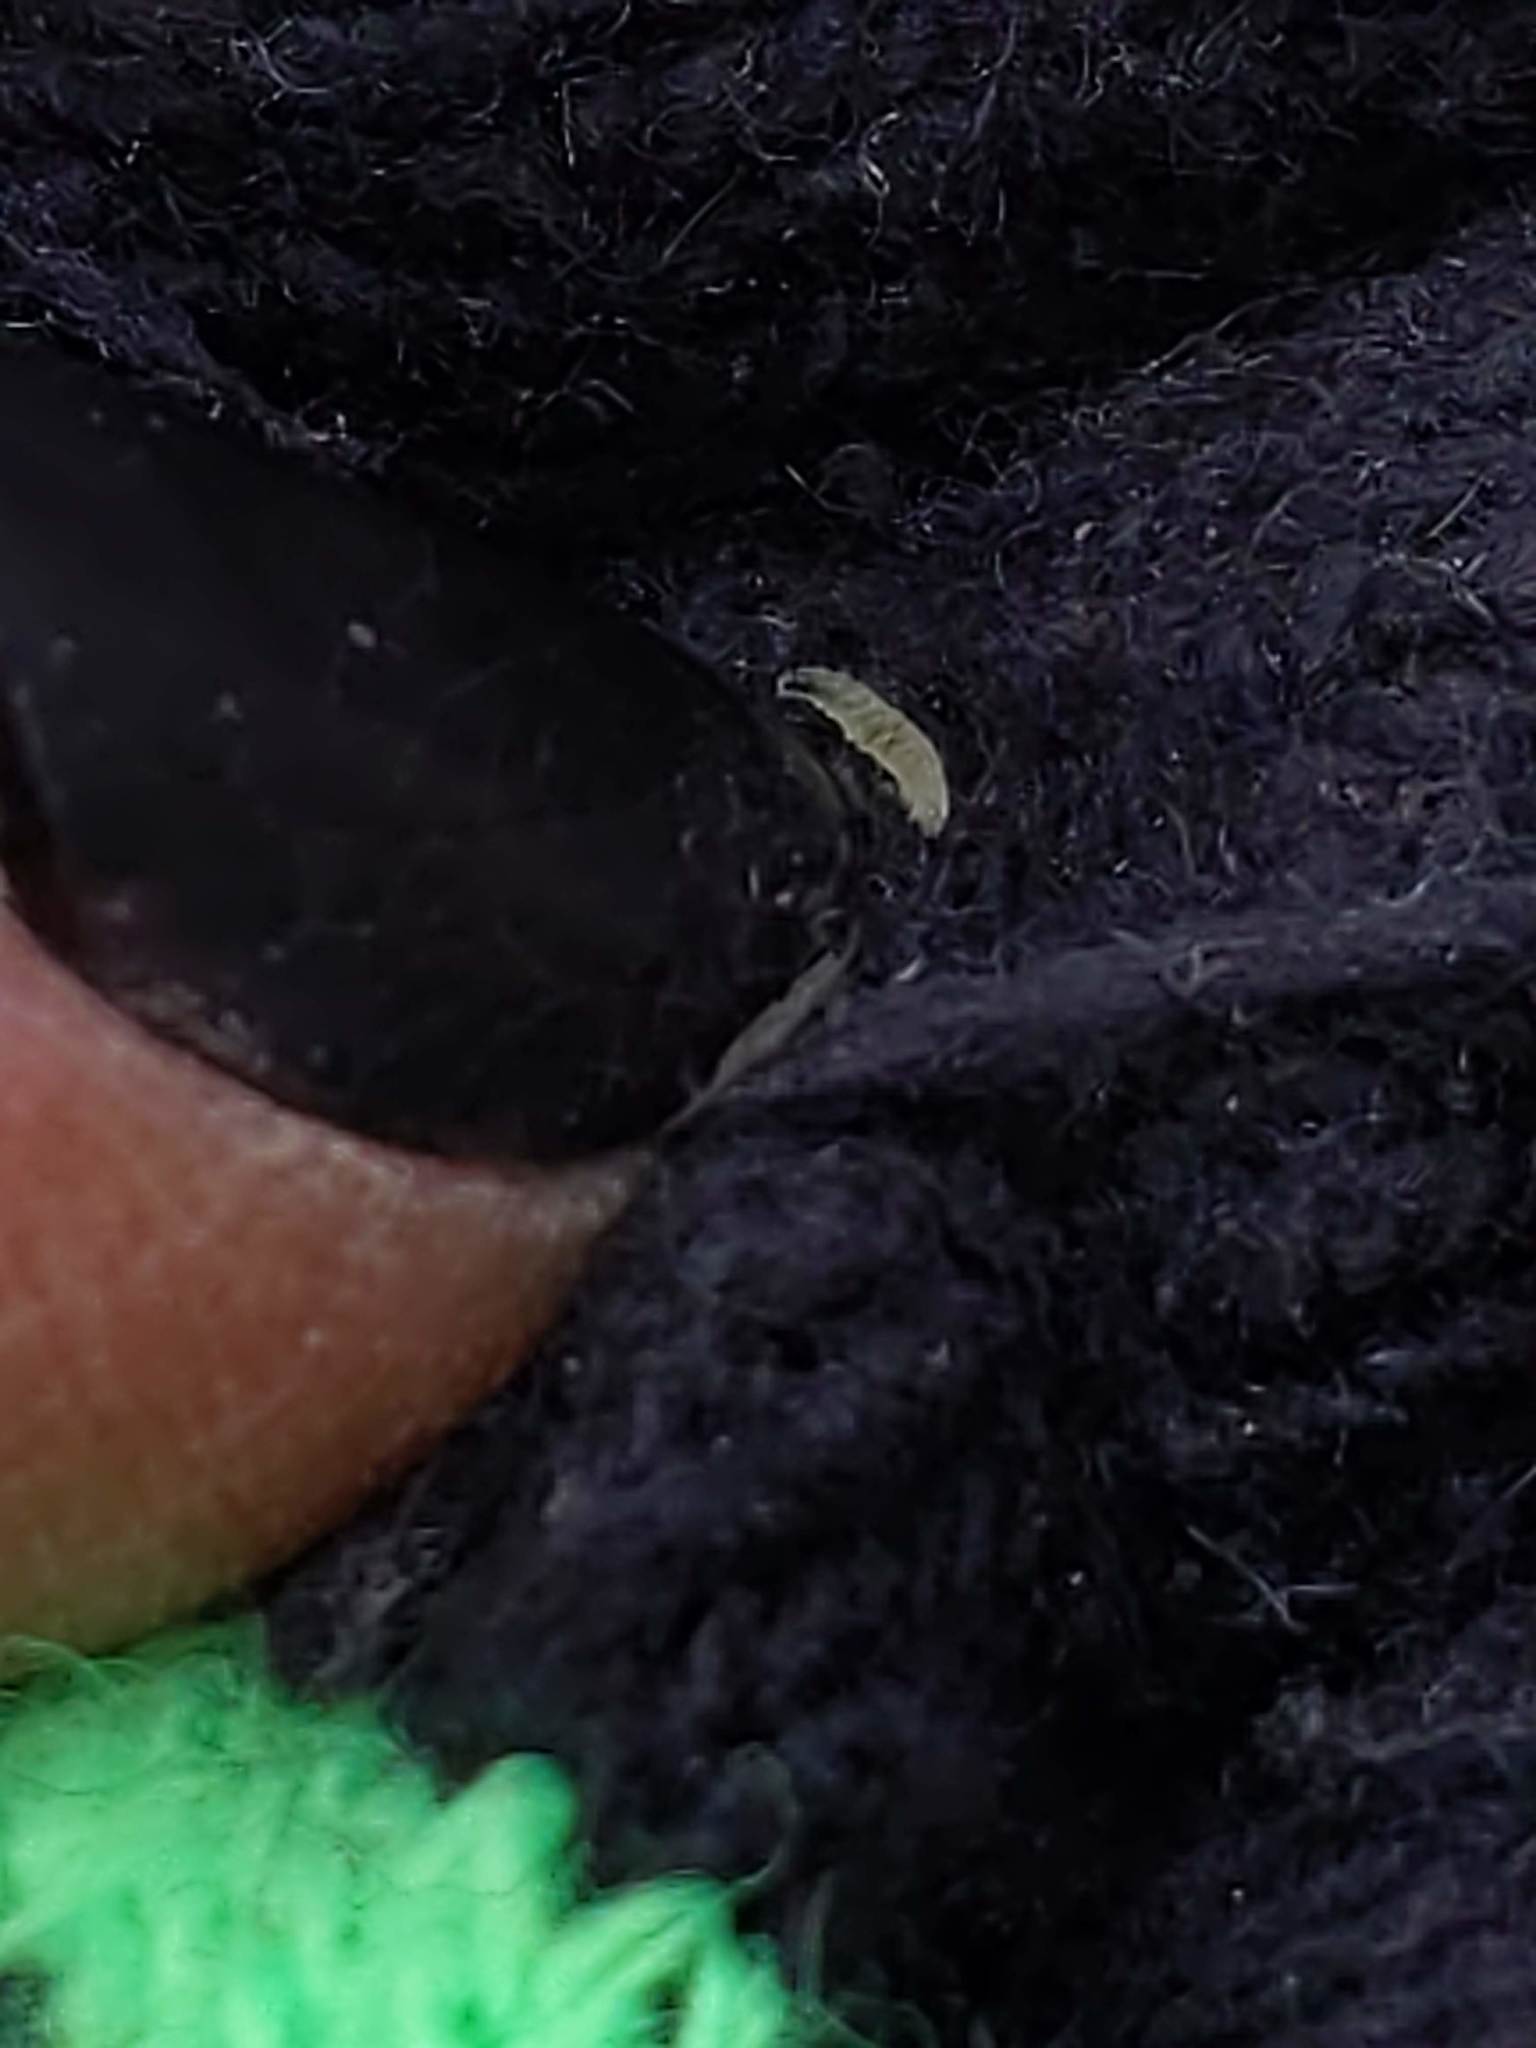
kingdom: Animalia
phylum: Arthropoda
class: Insecta
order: Lepidoptera
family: Gracillariidae
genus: Parectopa
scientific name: Parectopa plantaginisella
